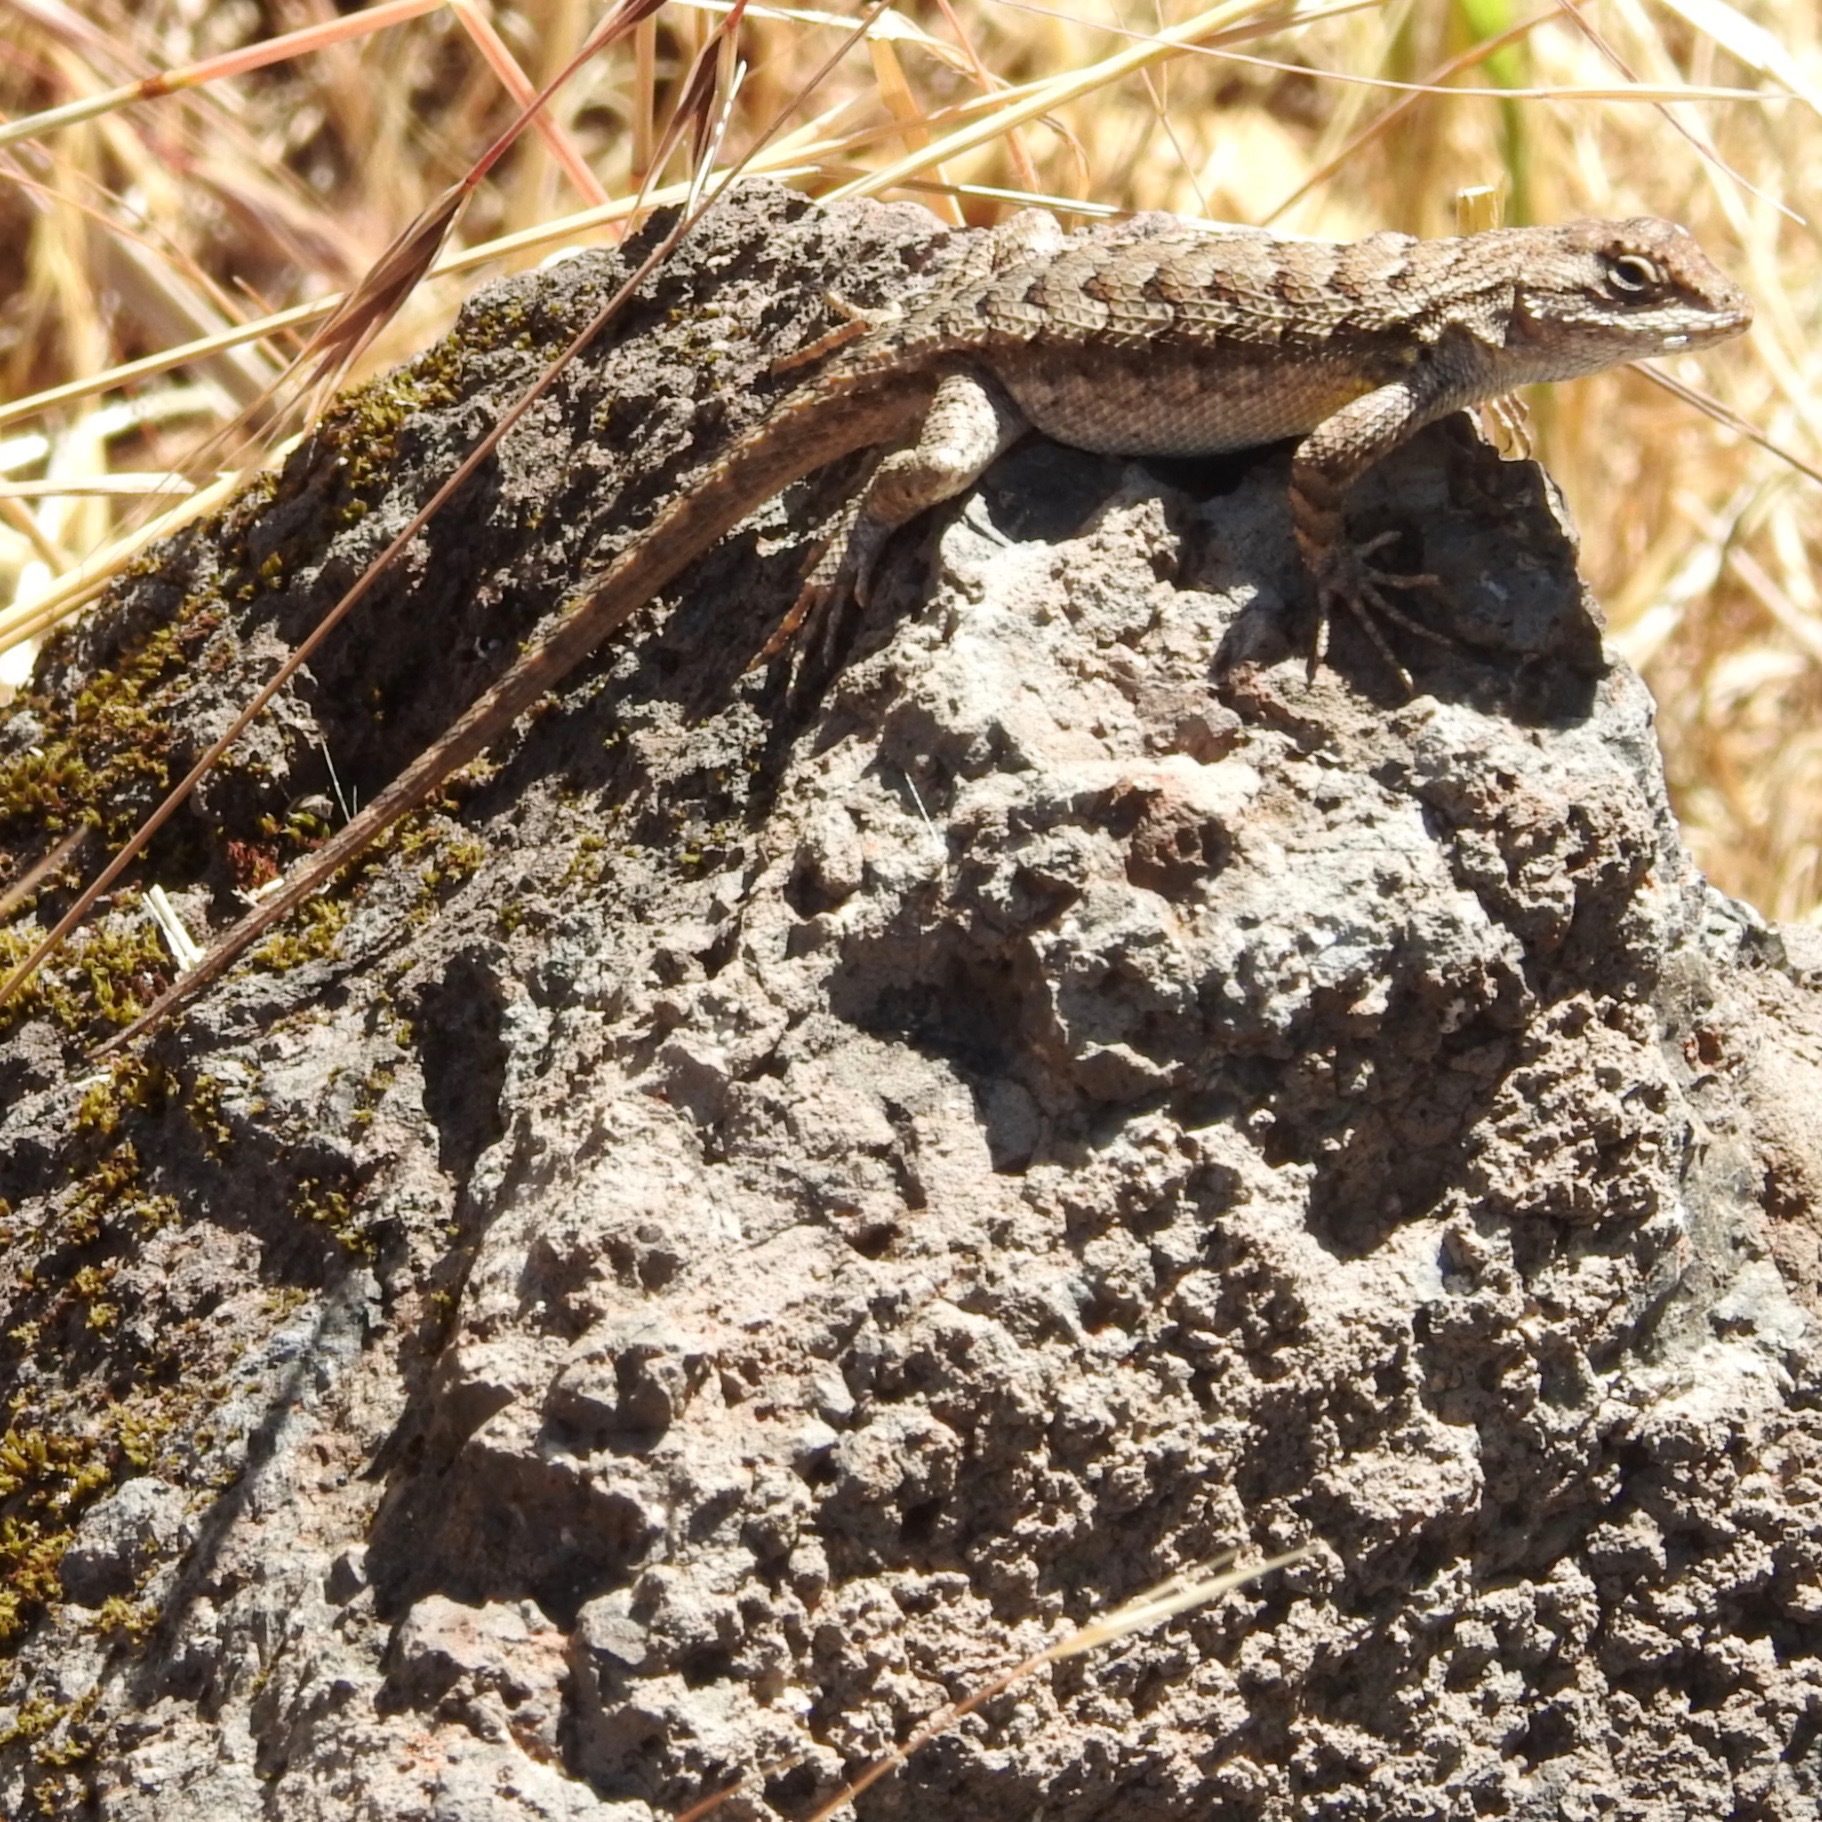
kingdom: Animalia
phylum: Chordata
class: Squamata
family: Phrynosomatidae
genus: Sceloporus
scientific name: Sceloporus occidentalis
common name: Western fence lizard
